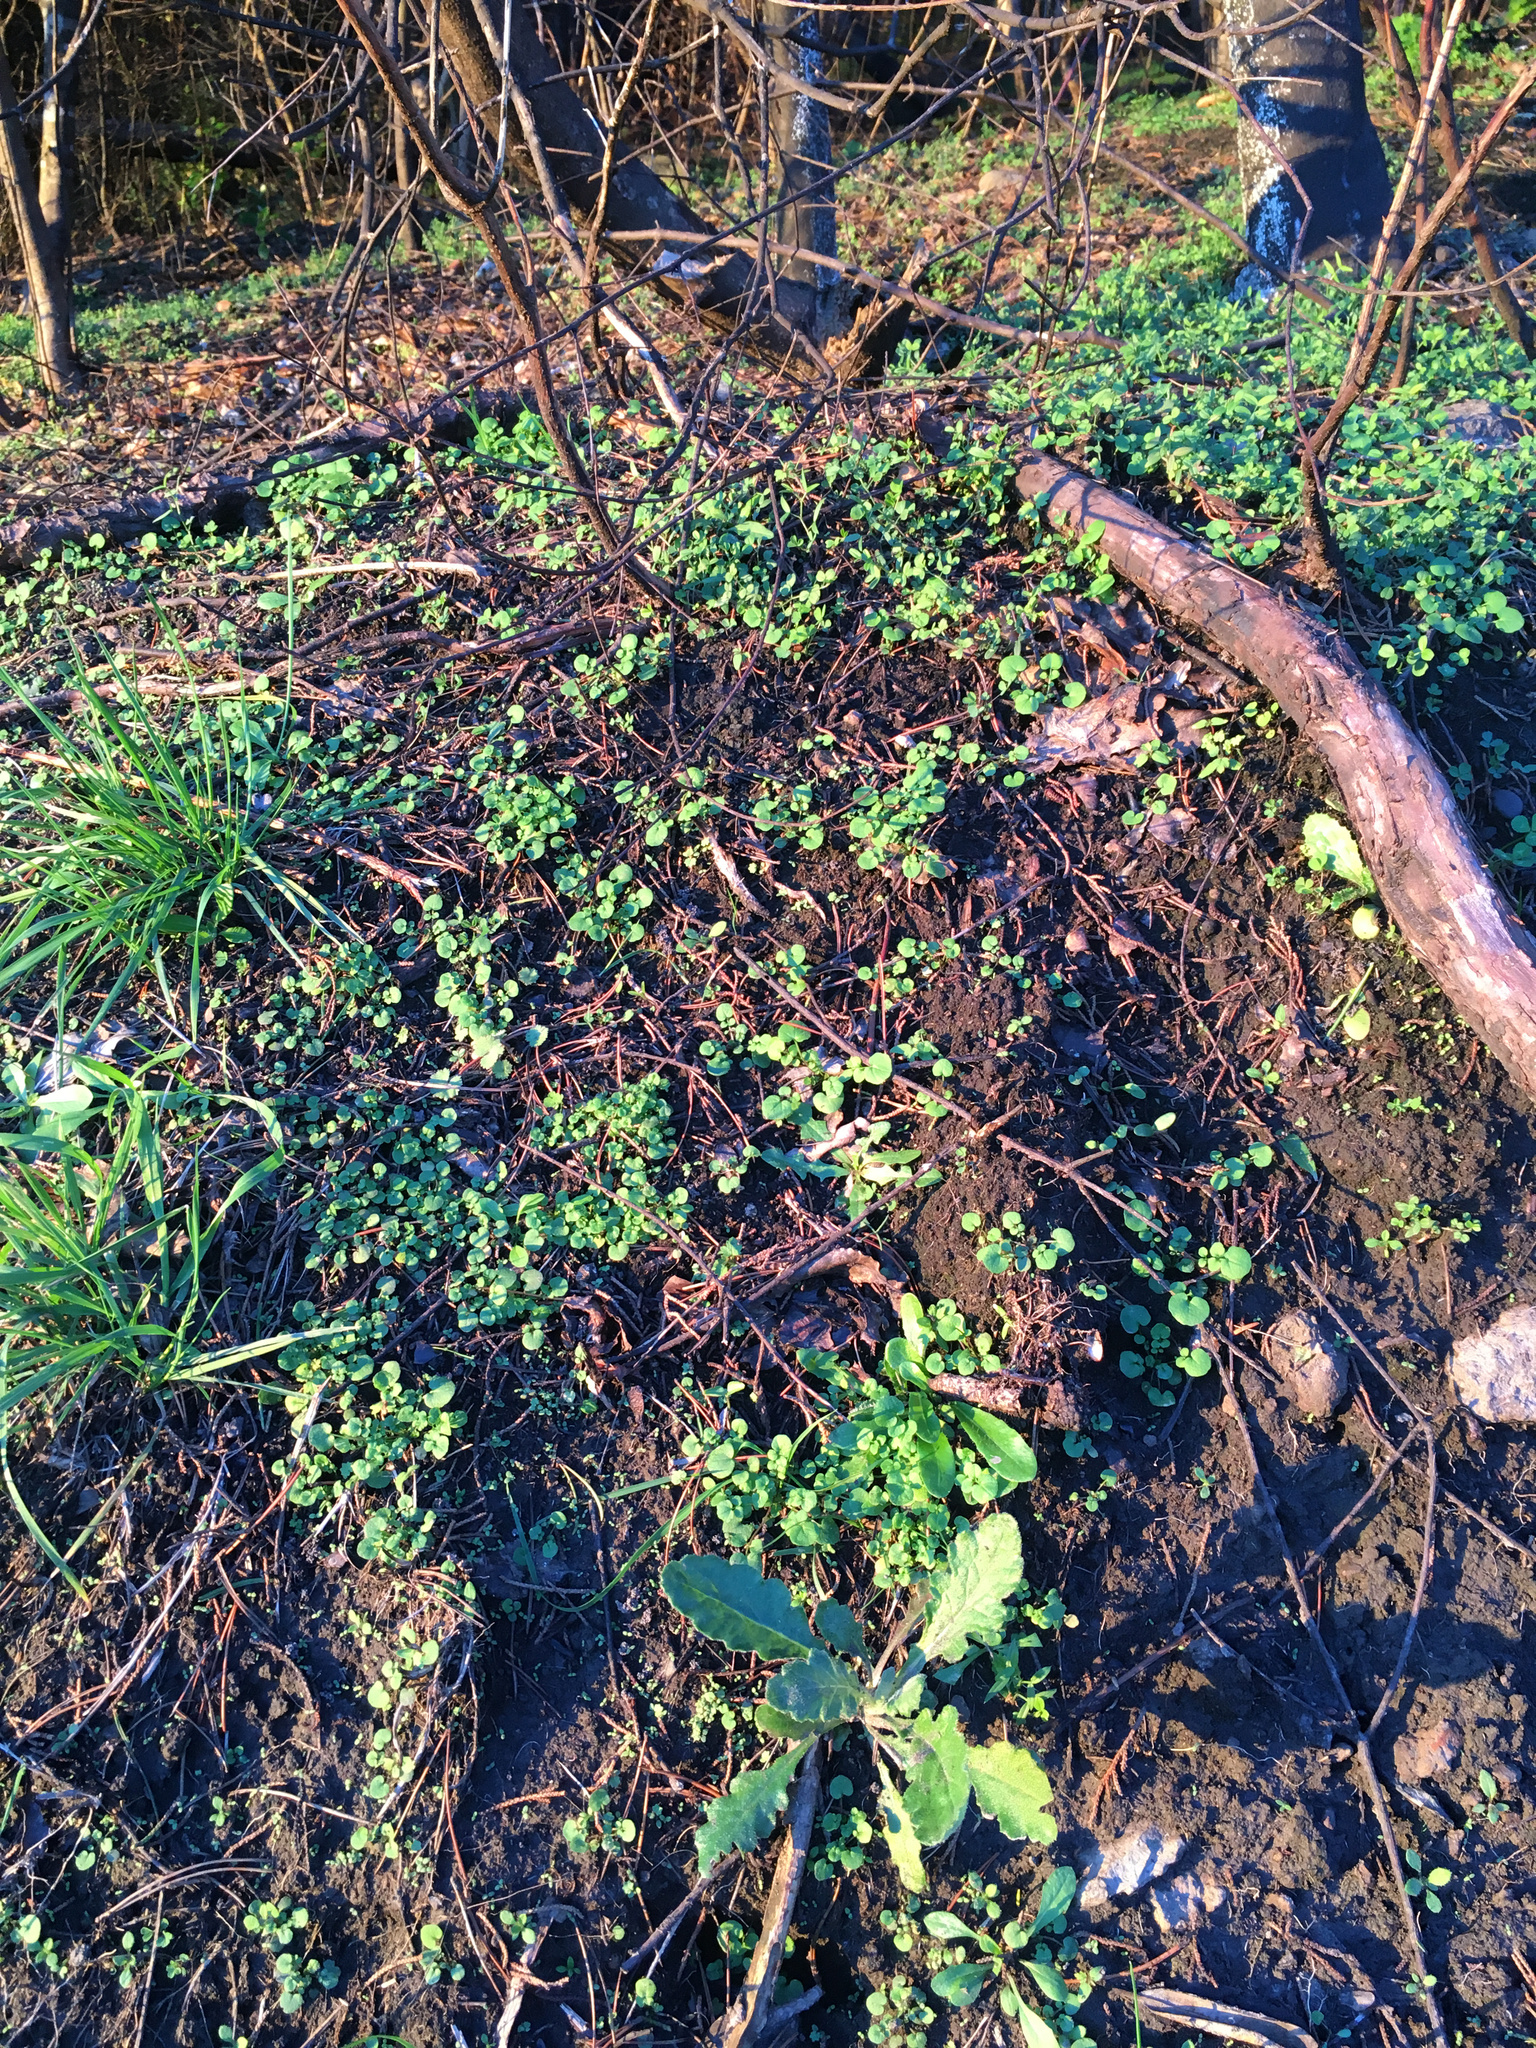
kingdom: Plantae
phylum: Tracheophyta
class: Magnoliopsida
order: Asterales
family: Asteraceae
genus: Senecio
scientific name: Senecio glomeratus
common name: Cutleaf burnweed
